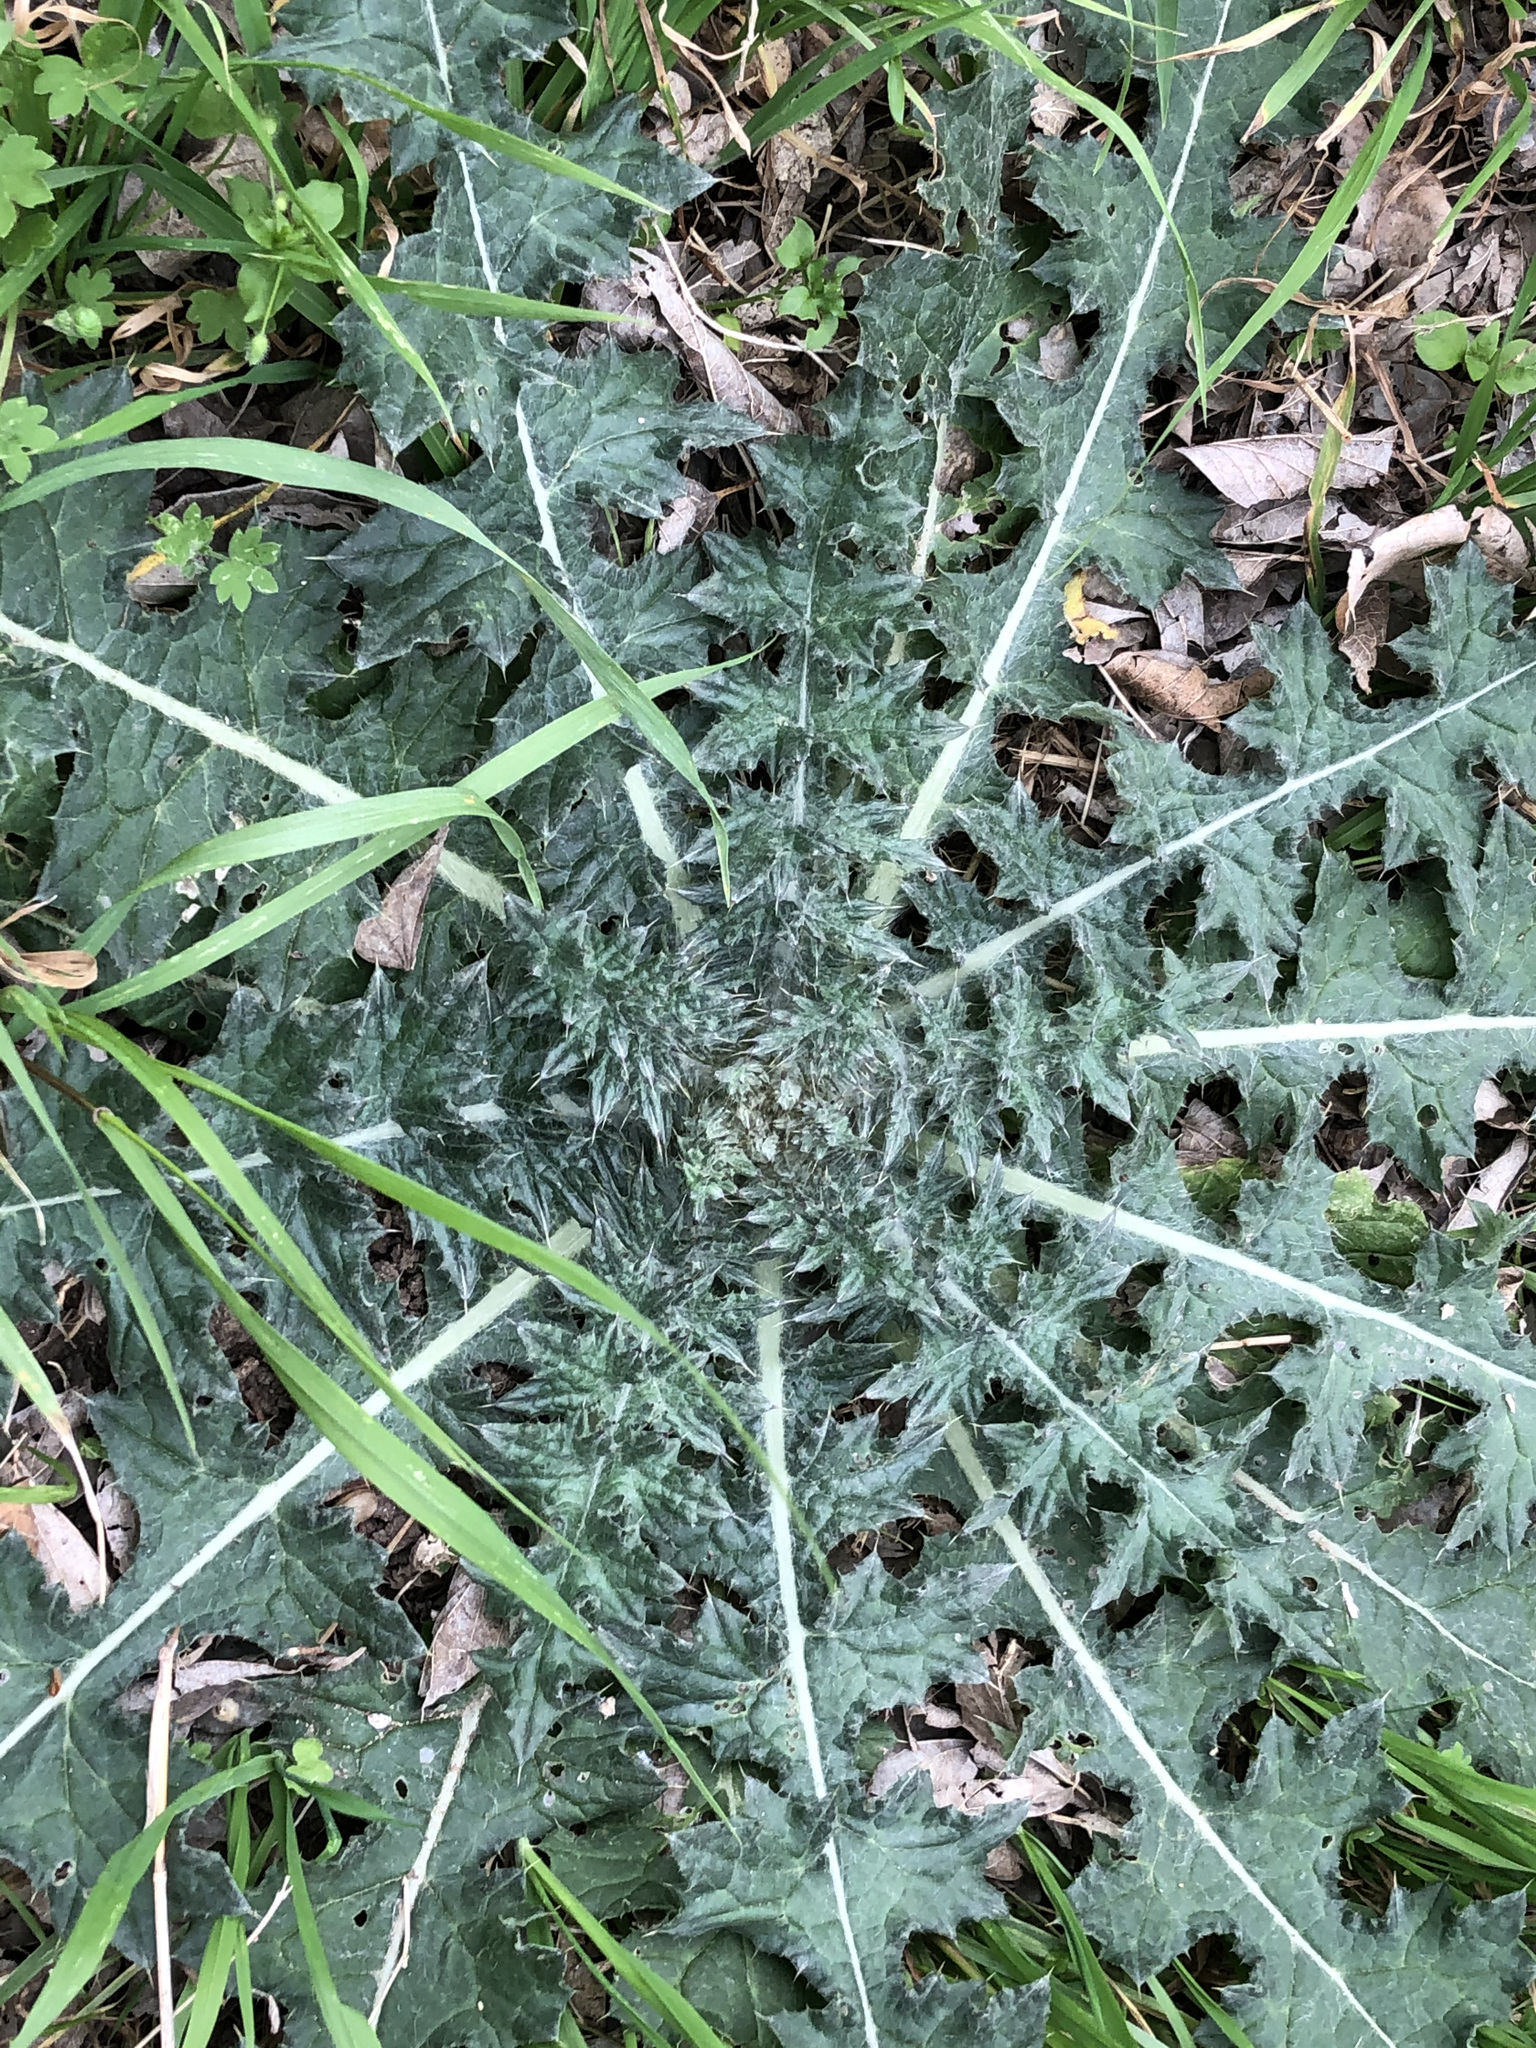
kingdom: Plantae
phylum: Tracheophyta
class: Magnoliopsida
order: Asterales
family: Asteraceae
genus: Cirsium
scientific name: Cirsium texanum
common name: Texas purple thistle
